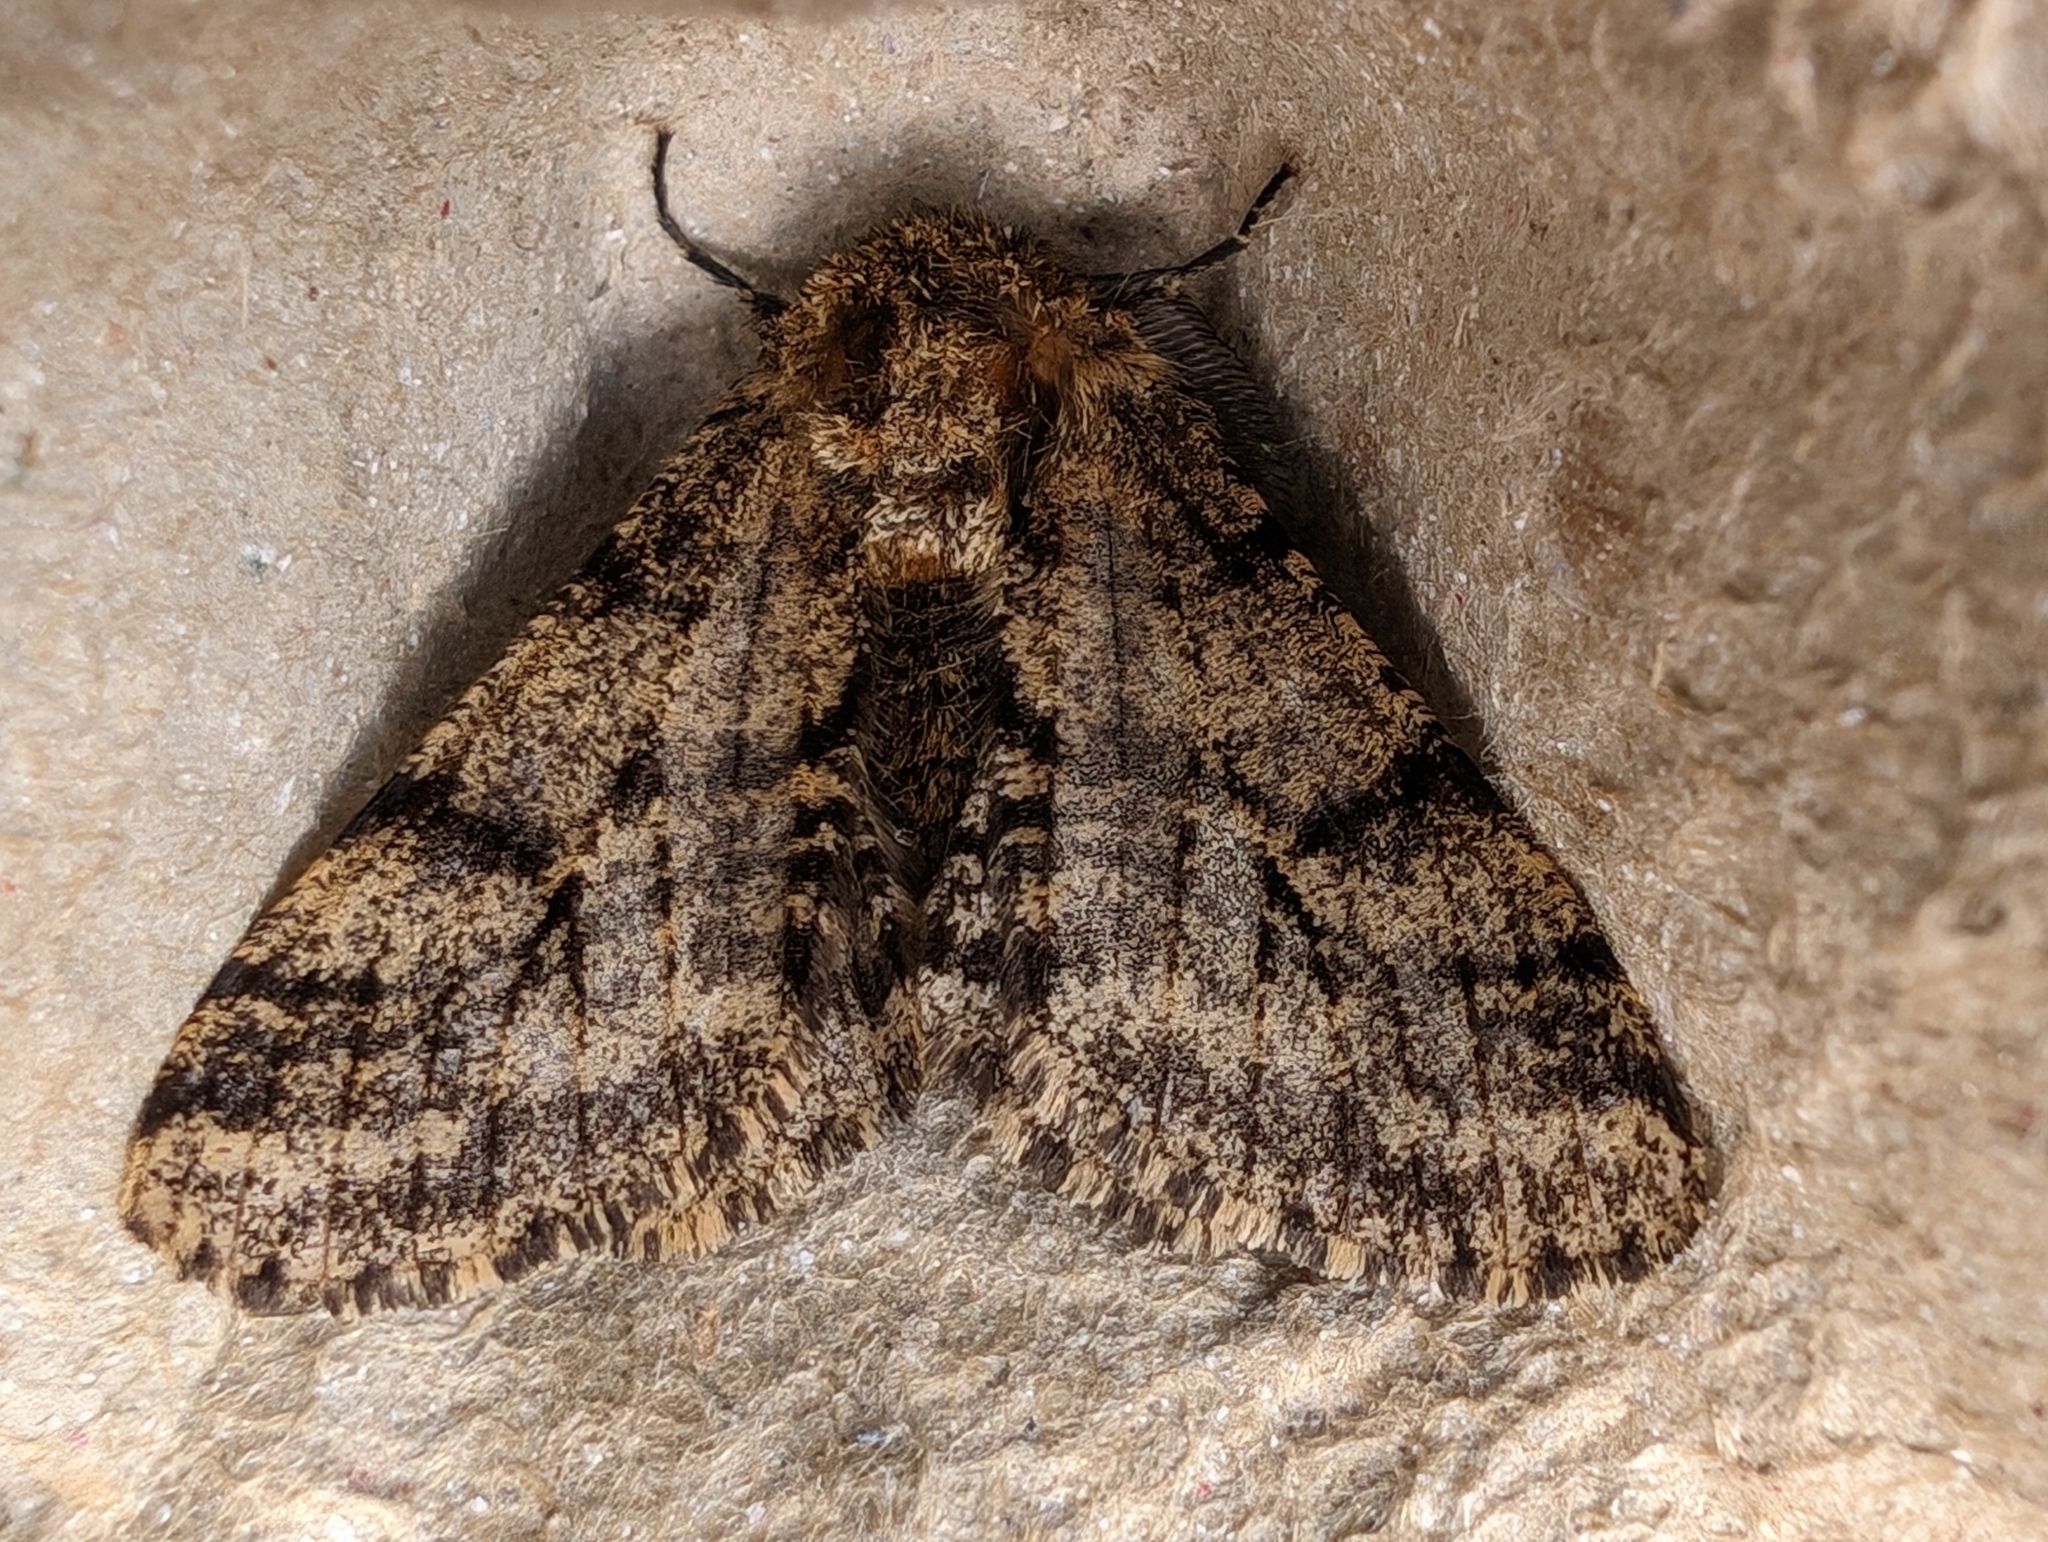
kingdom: Animalia
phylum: Arthropoda
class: Insecta
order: Lepidoptera
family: Geometridae
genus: Lycia
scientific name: Lycia hirtaria
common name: Brindled beauty
